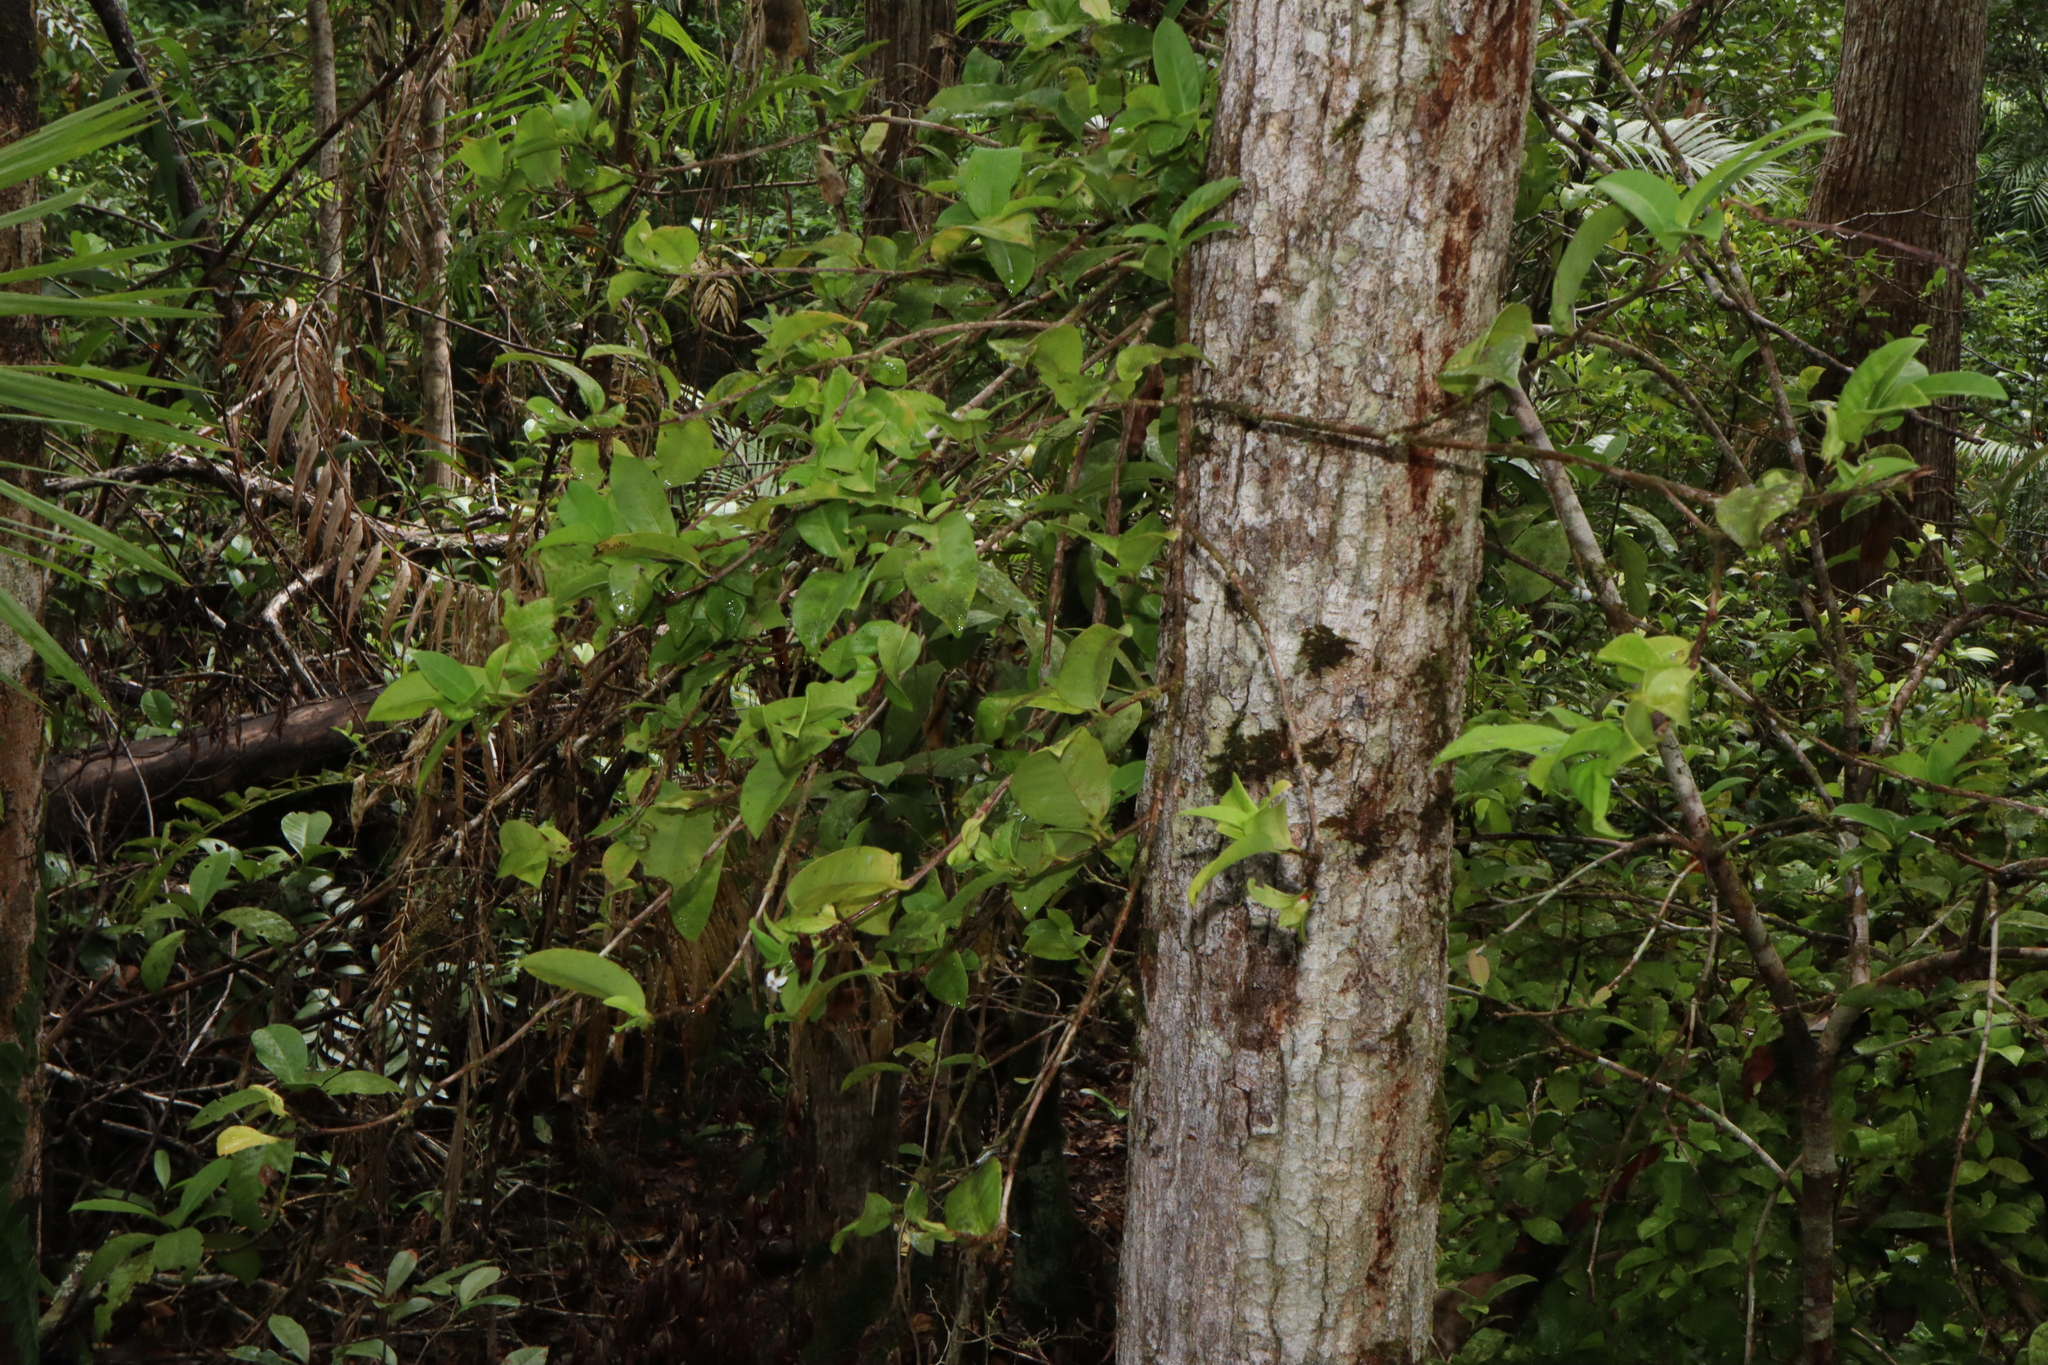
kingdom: Plantae
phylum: Tracheophyta
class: Magnoliopsida
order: Gentianales
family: Rubiaceae
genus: Ixora
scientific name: Ixora biflora
